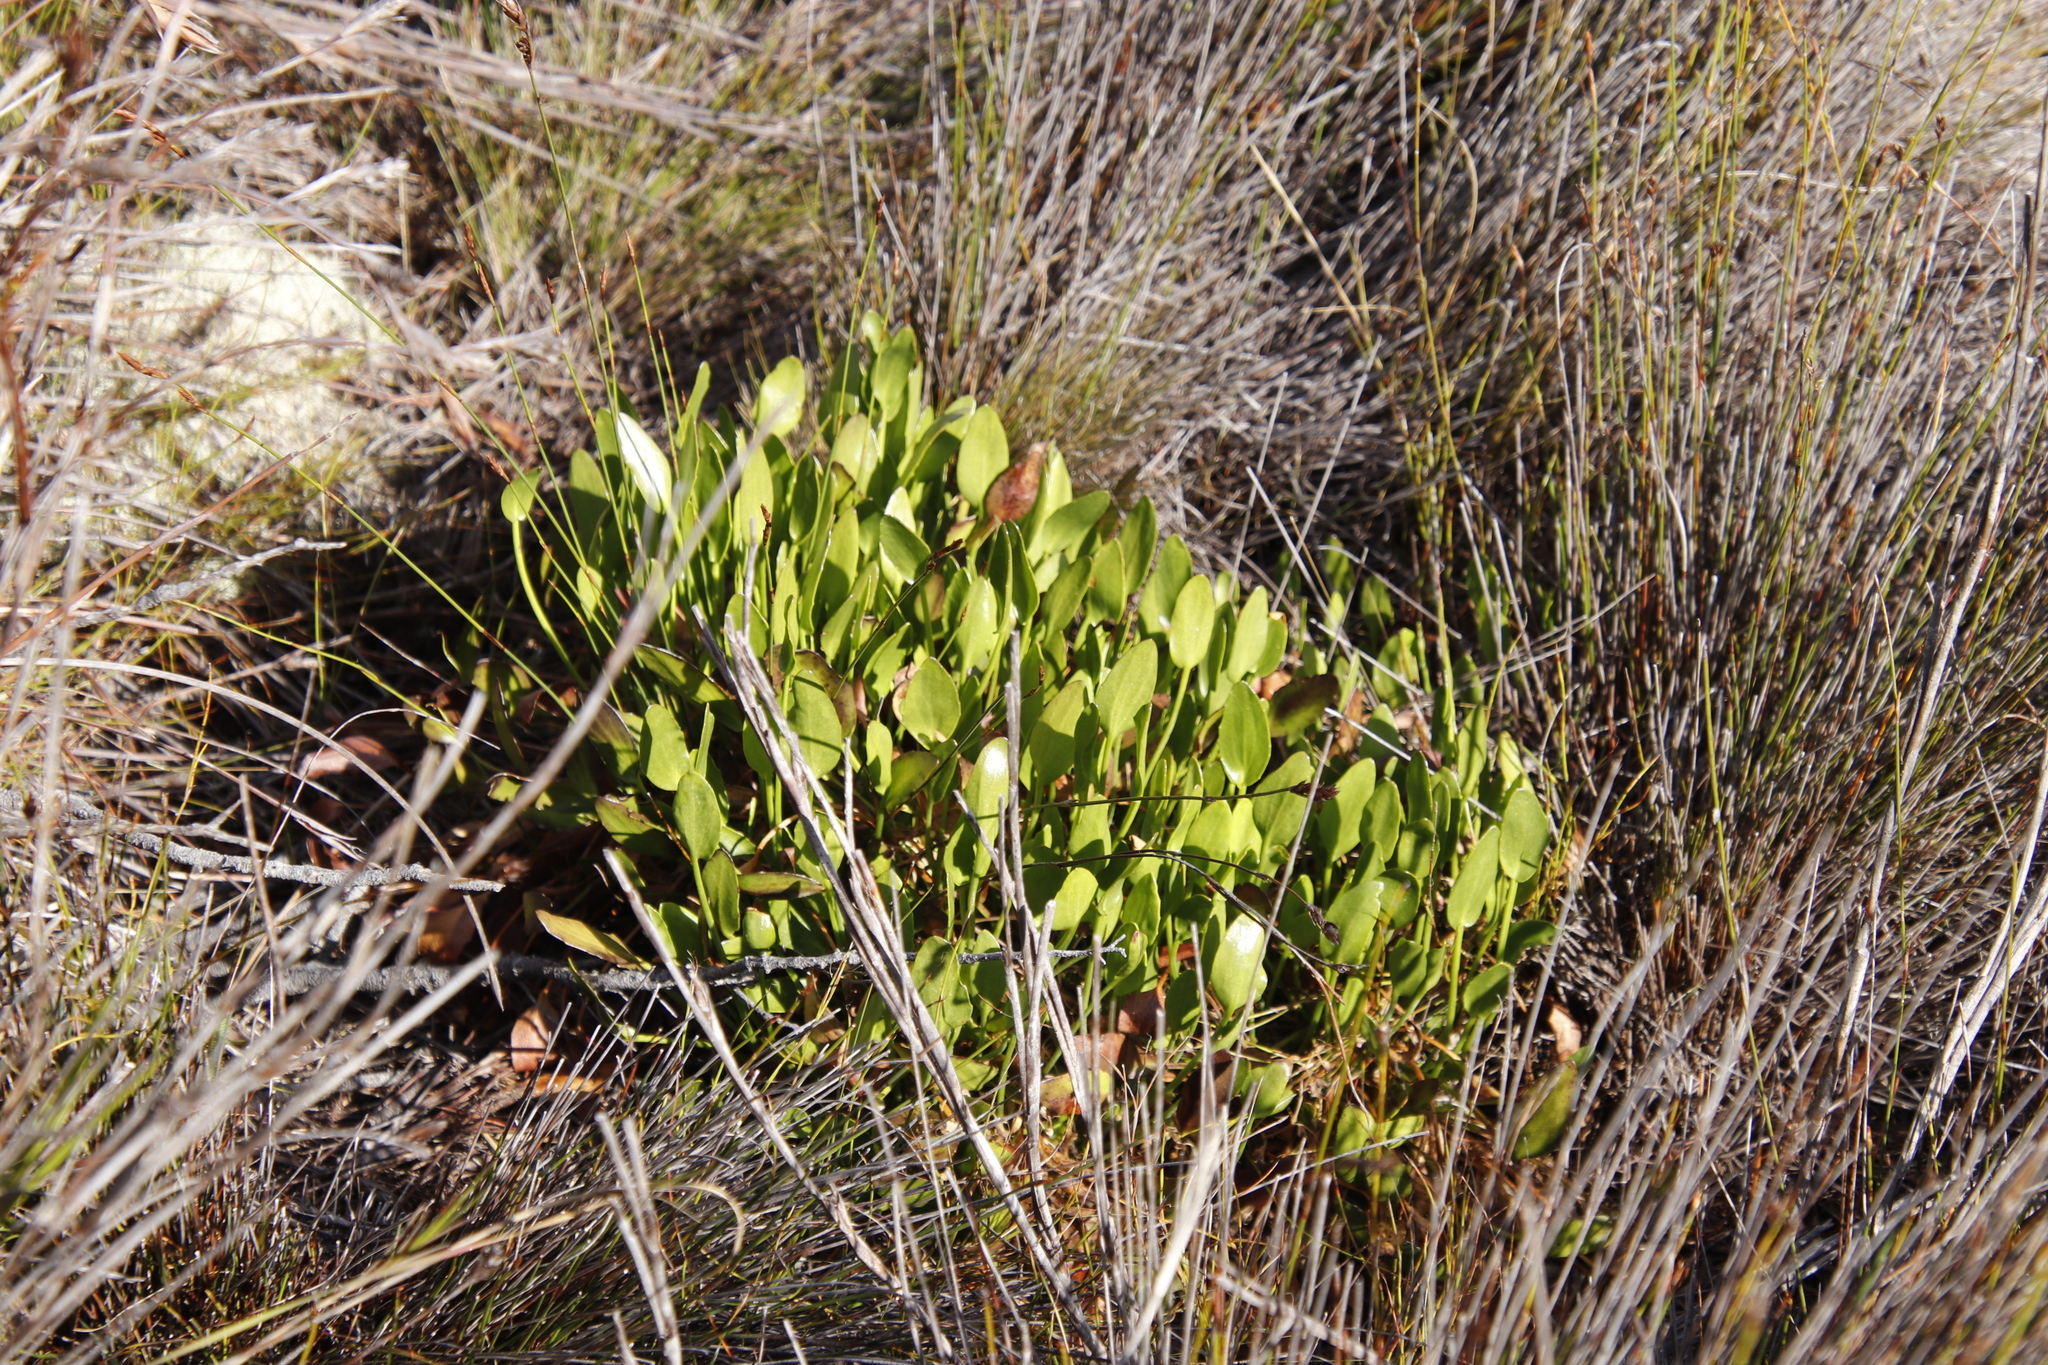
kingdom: Plantae
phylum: Tracheophyta
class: Magnoliopsida
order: Asterales
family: Menyanthaceae
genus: Villarsia
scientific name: Villarsia manningiana
